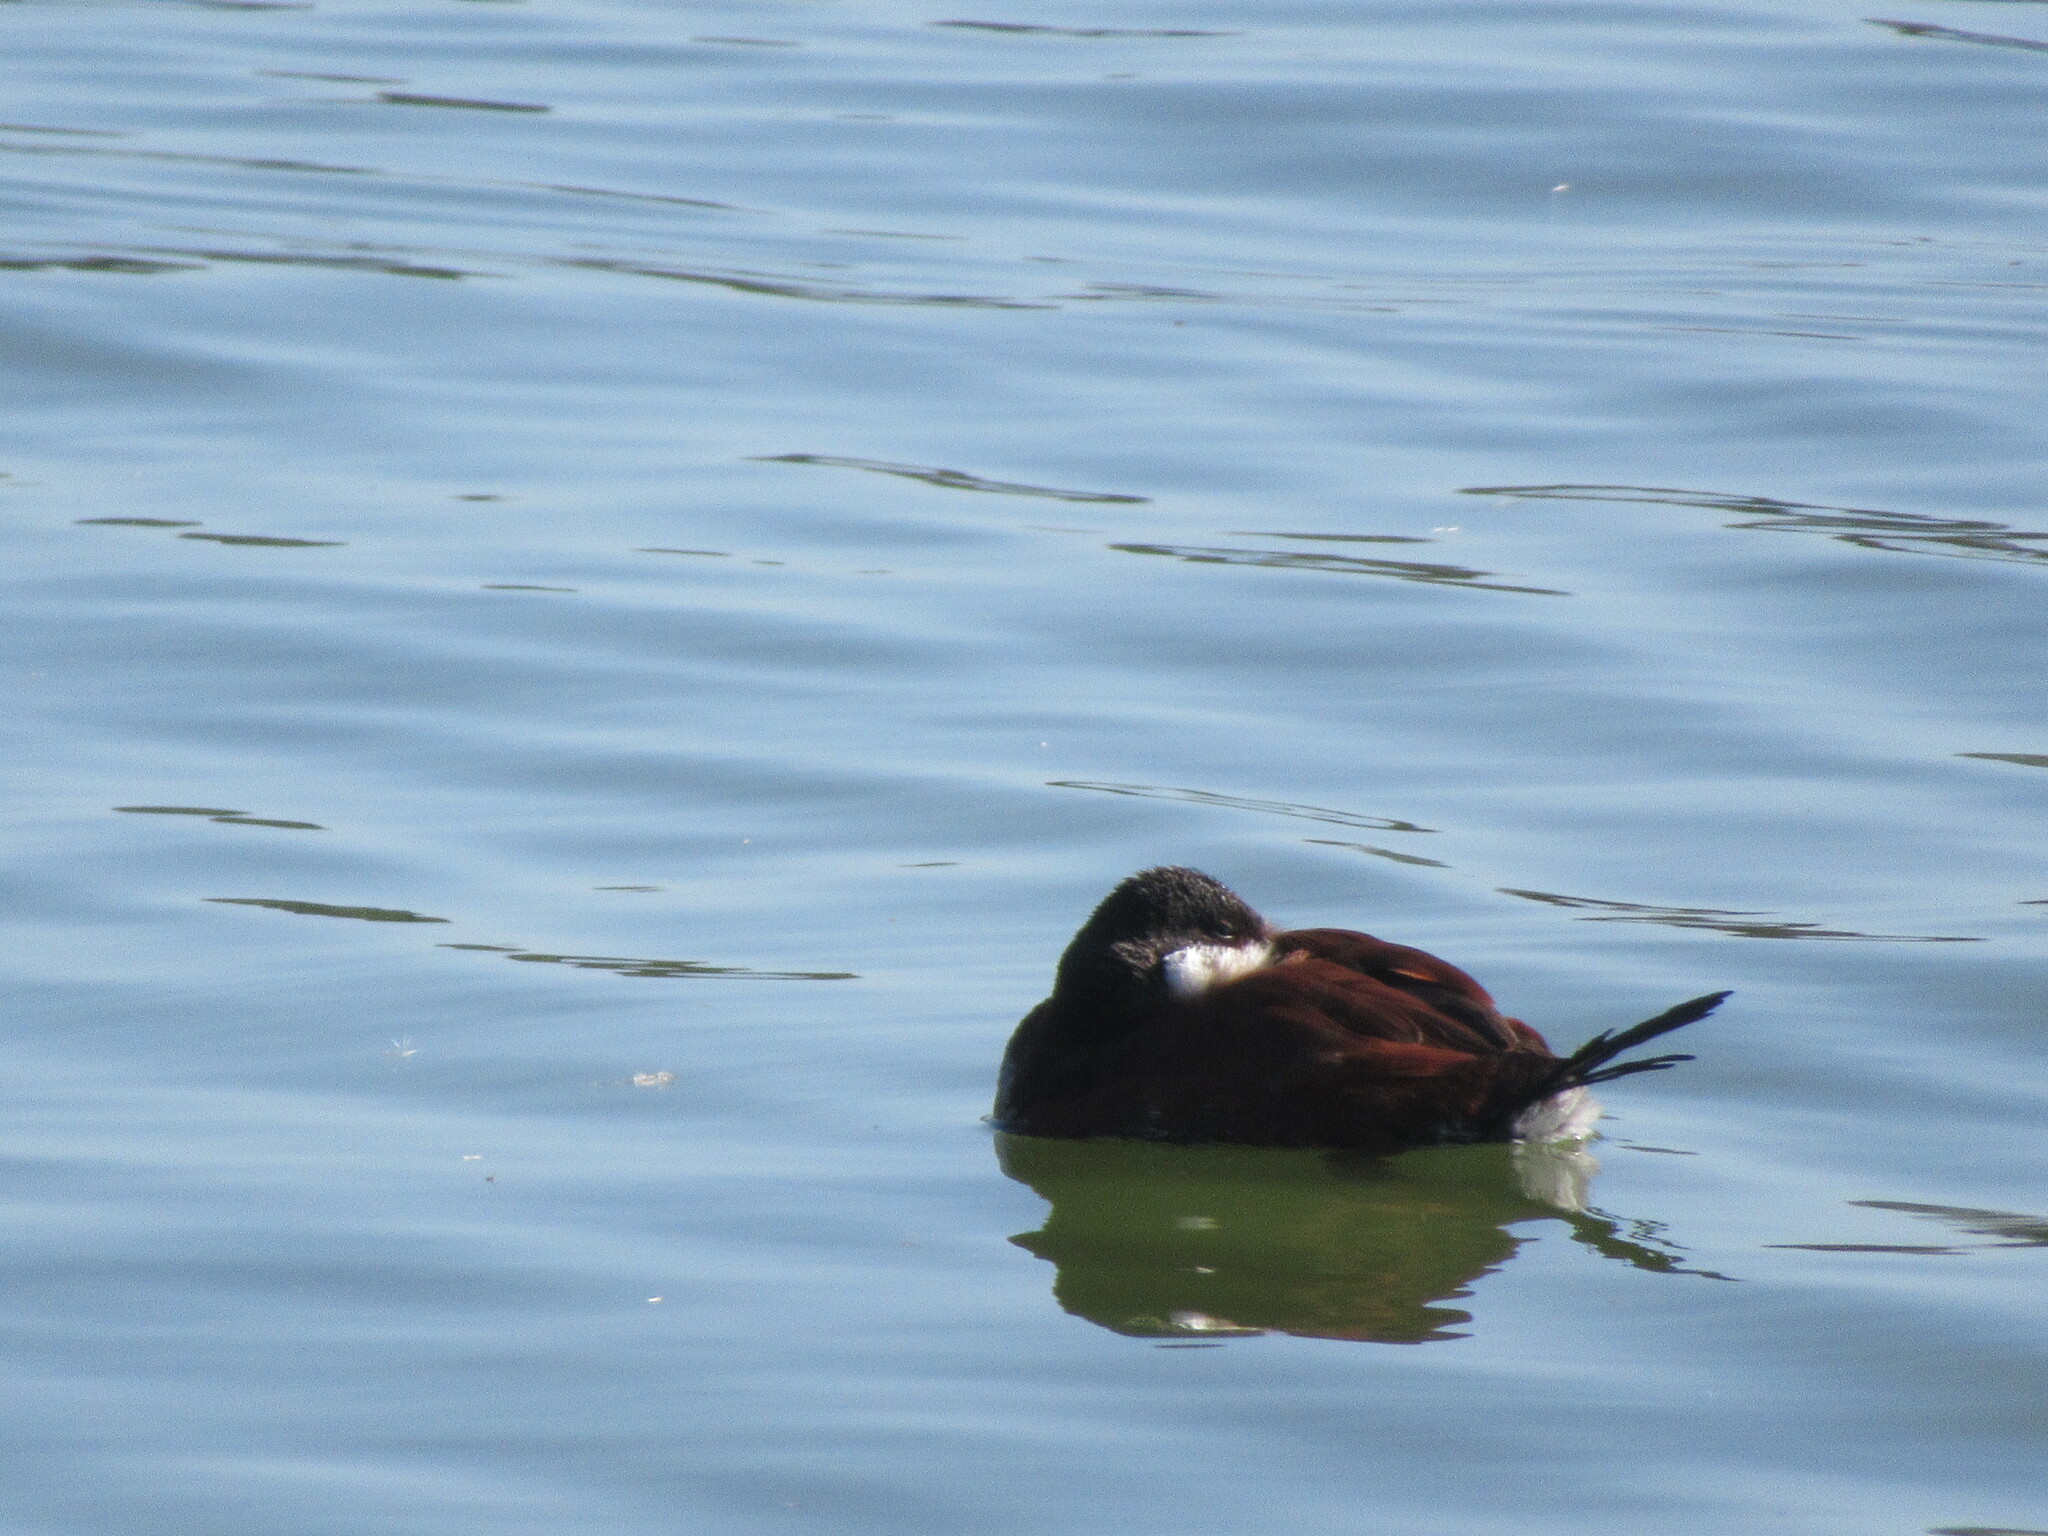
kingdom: Animalia
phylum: Chordata
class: Aves
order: Anseriformes
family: Anatidae
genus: Oxyura
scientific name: Oxyura jamaicensis
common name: Ruddy duck
